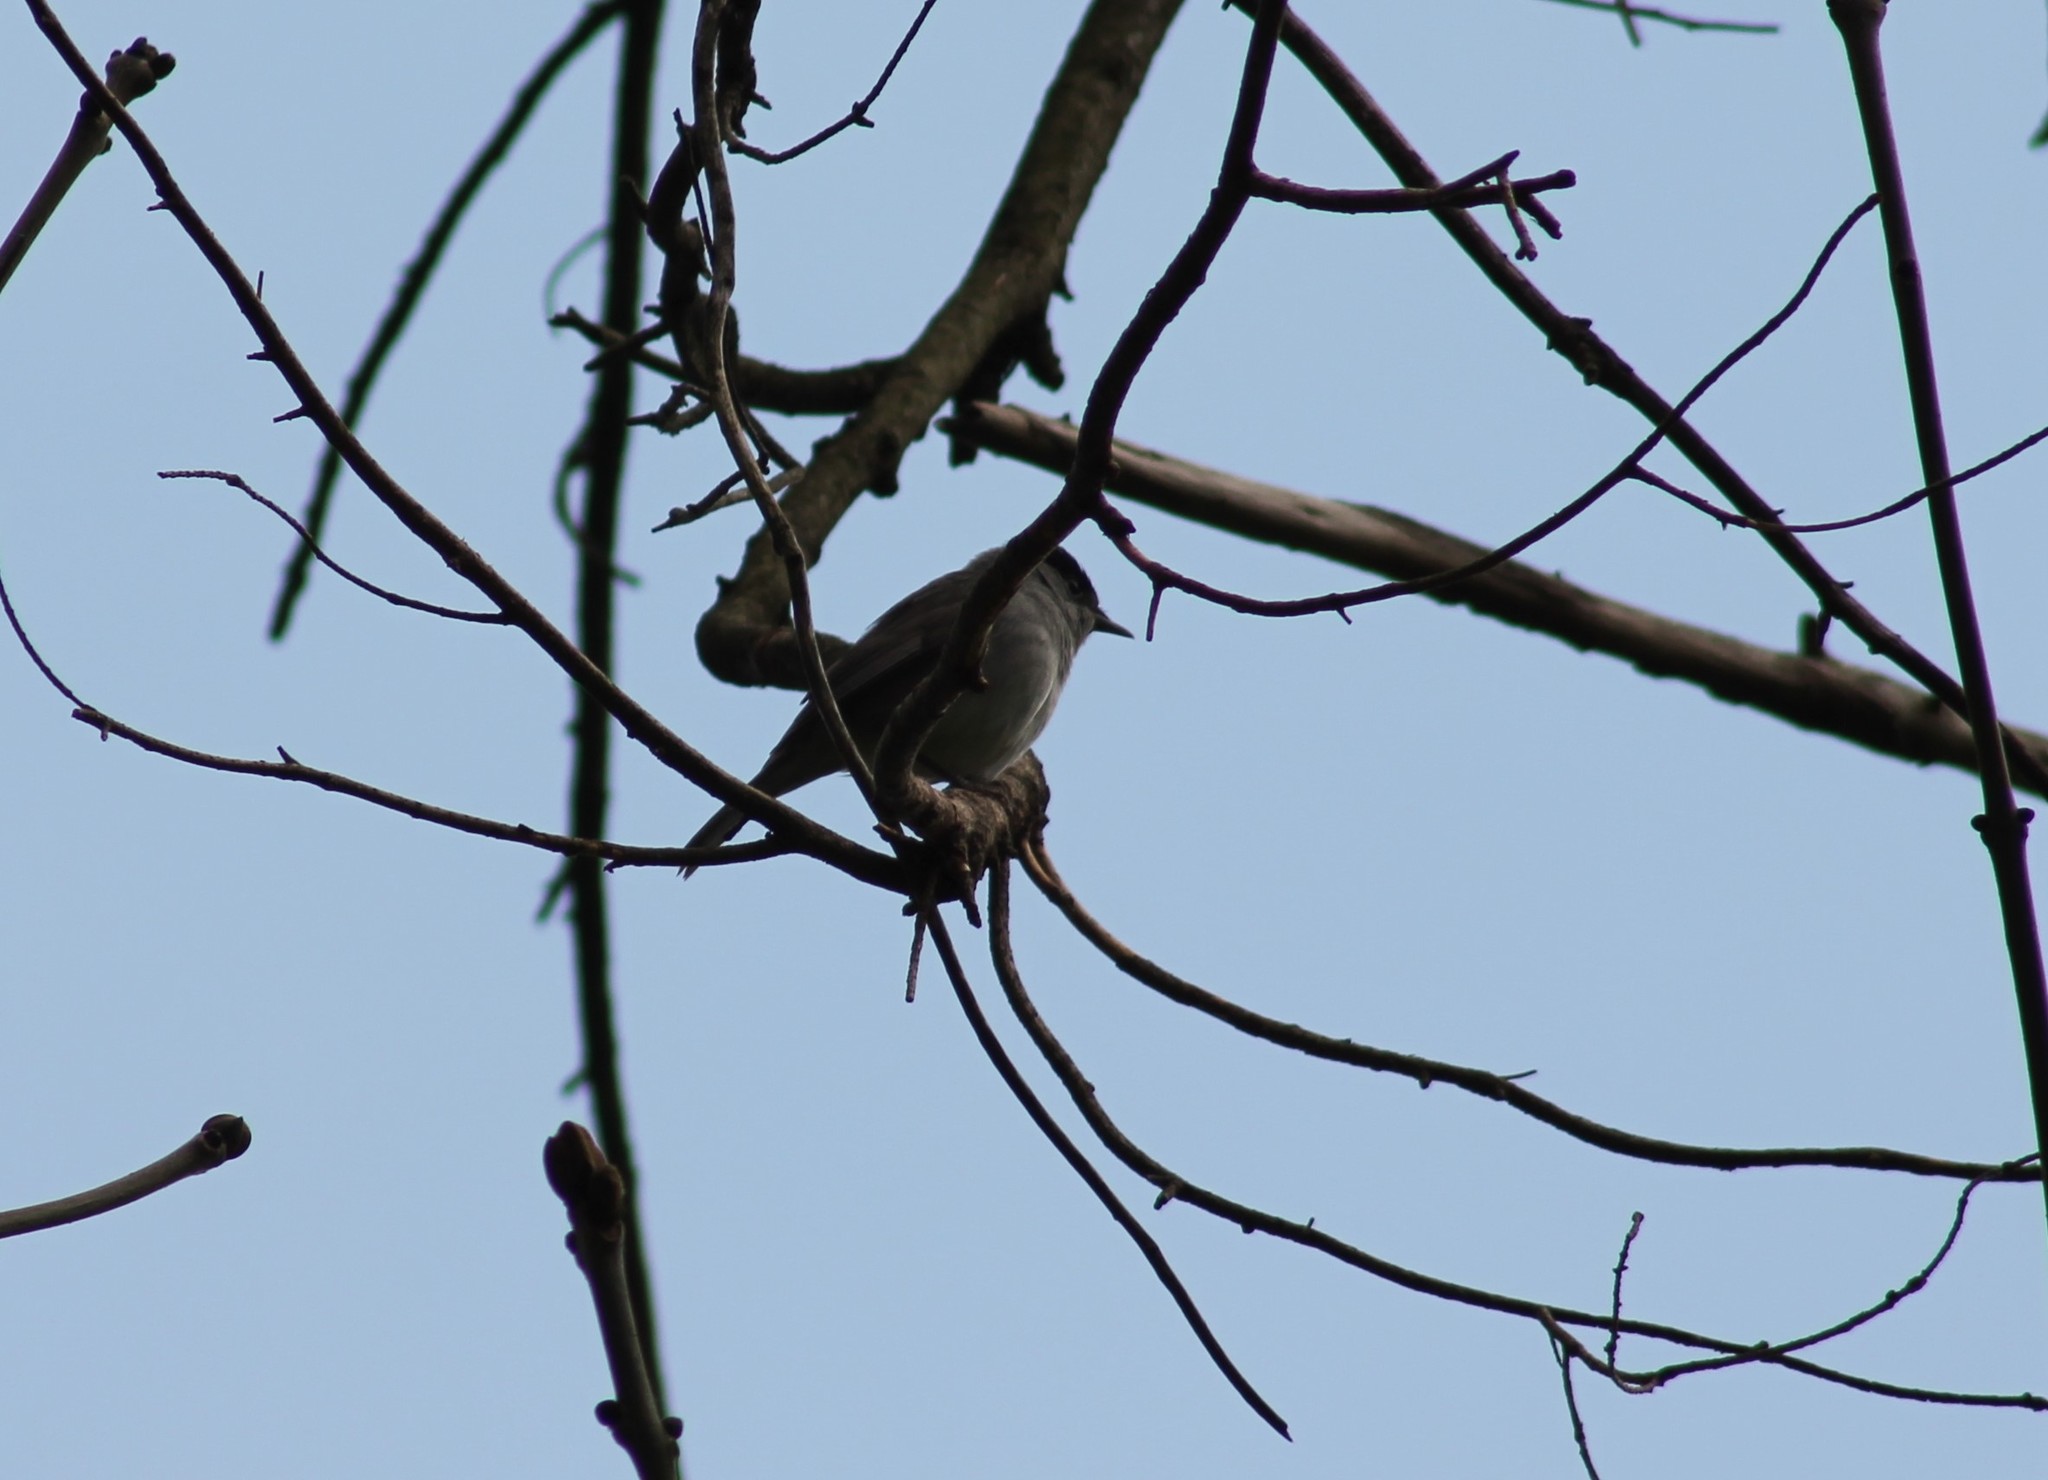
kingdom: Animalia
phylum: Chordata
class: Aves
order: Passeriformes
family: Sylviidae
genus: Sylvia
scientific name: Sylvia atricapilla
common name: Eurasian blackcap
